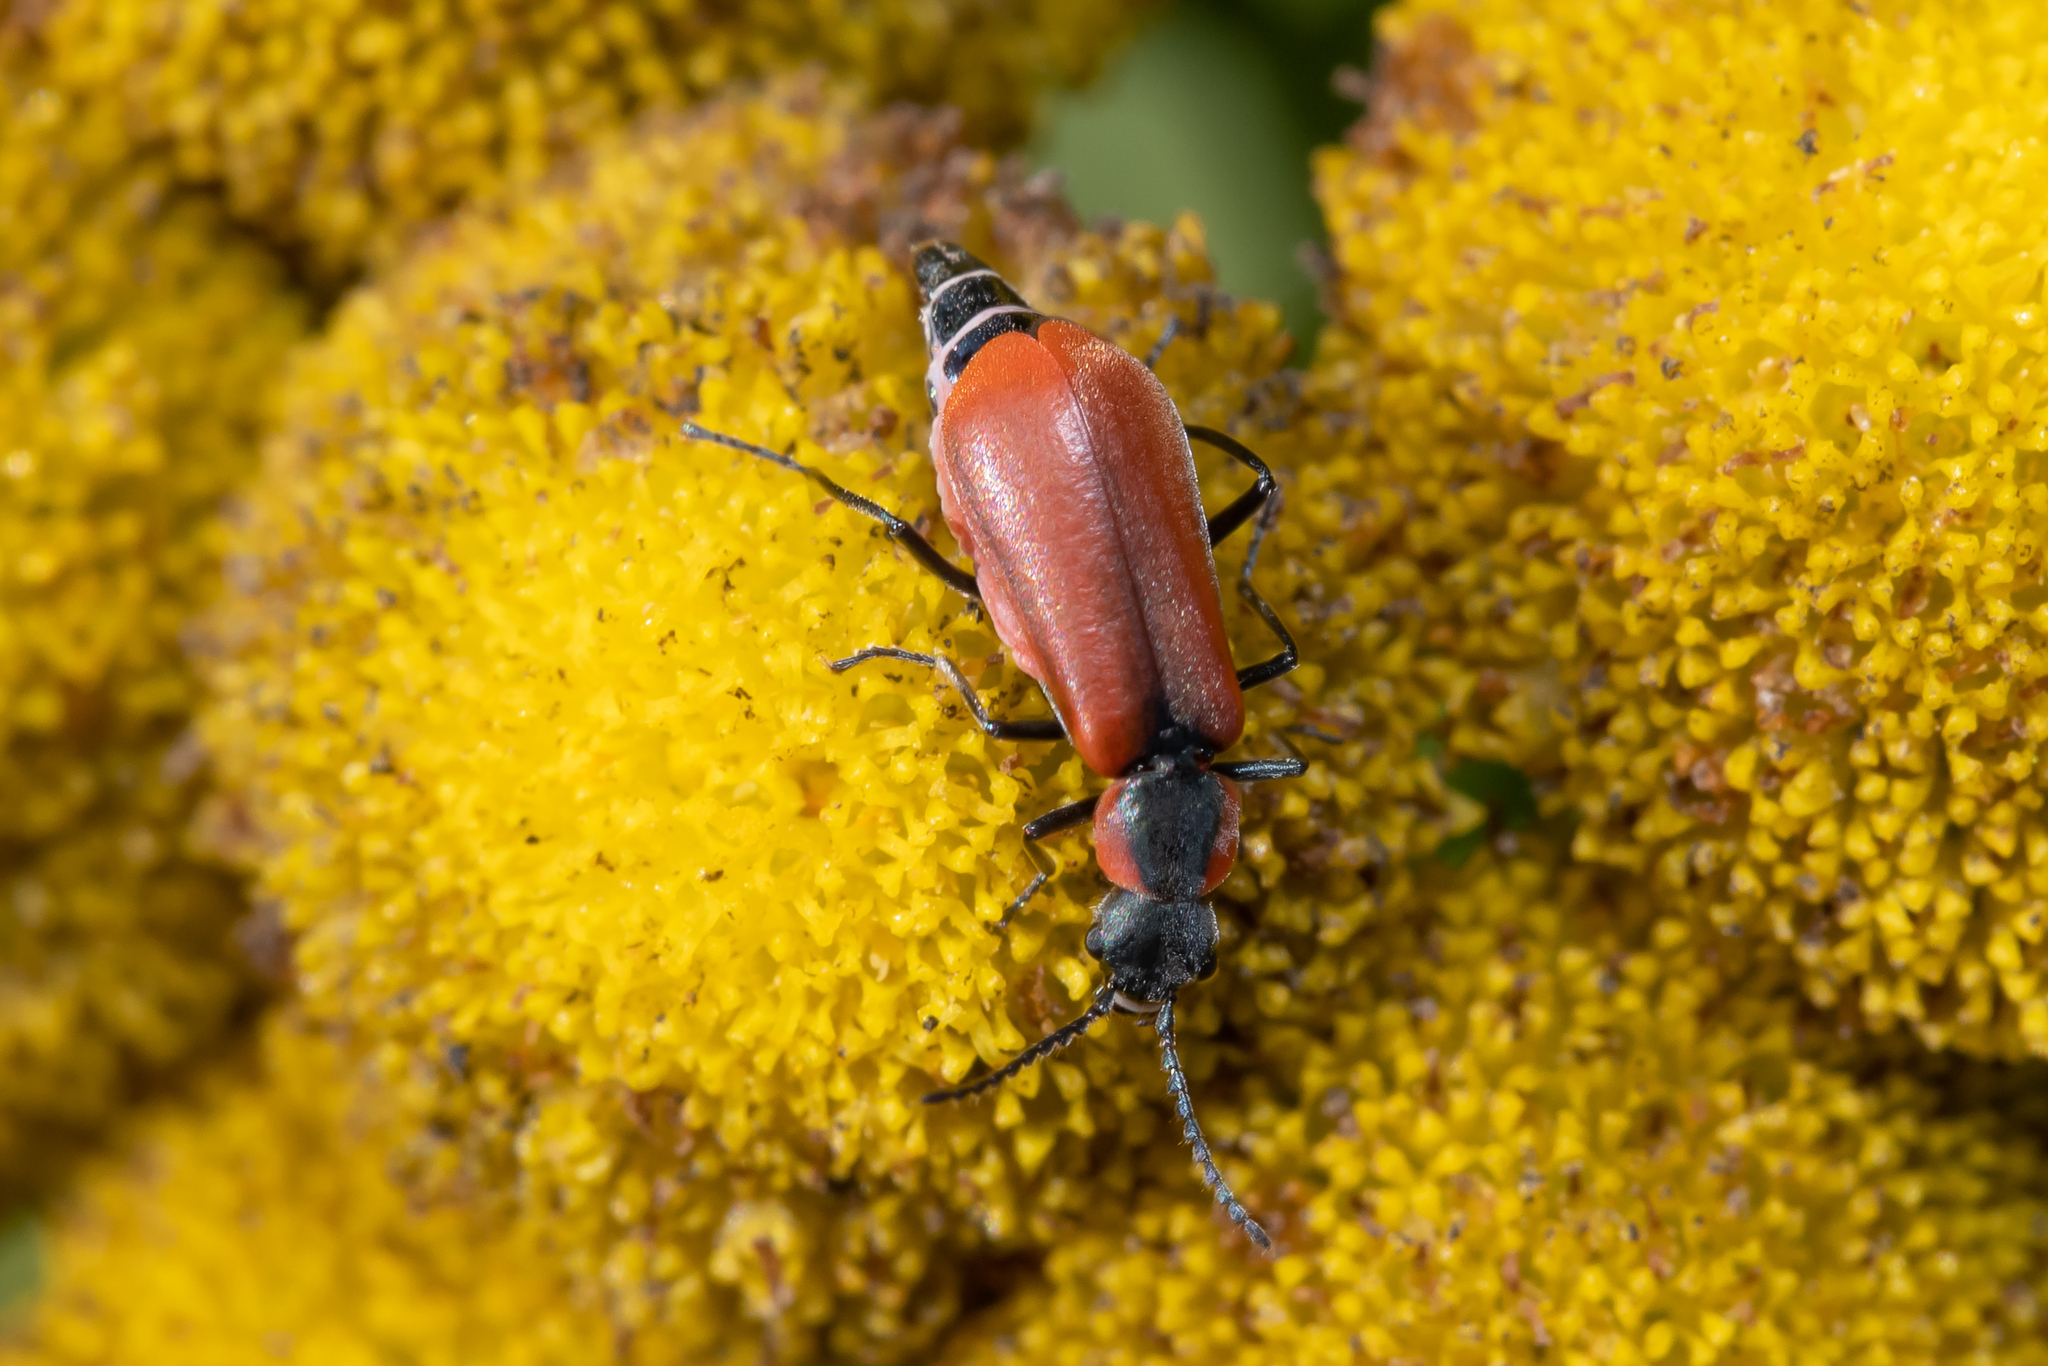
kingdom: Animalia
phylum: Arthropoda
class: Insecta
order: Coleoptera
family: Melyridae
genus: Anthocomus
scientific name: Anthocomus rufus
